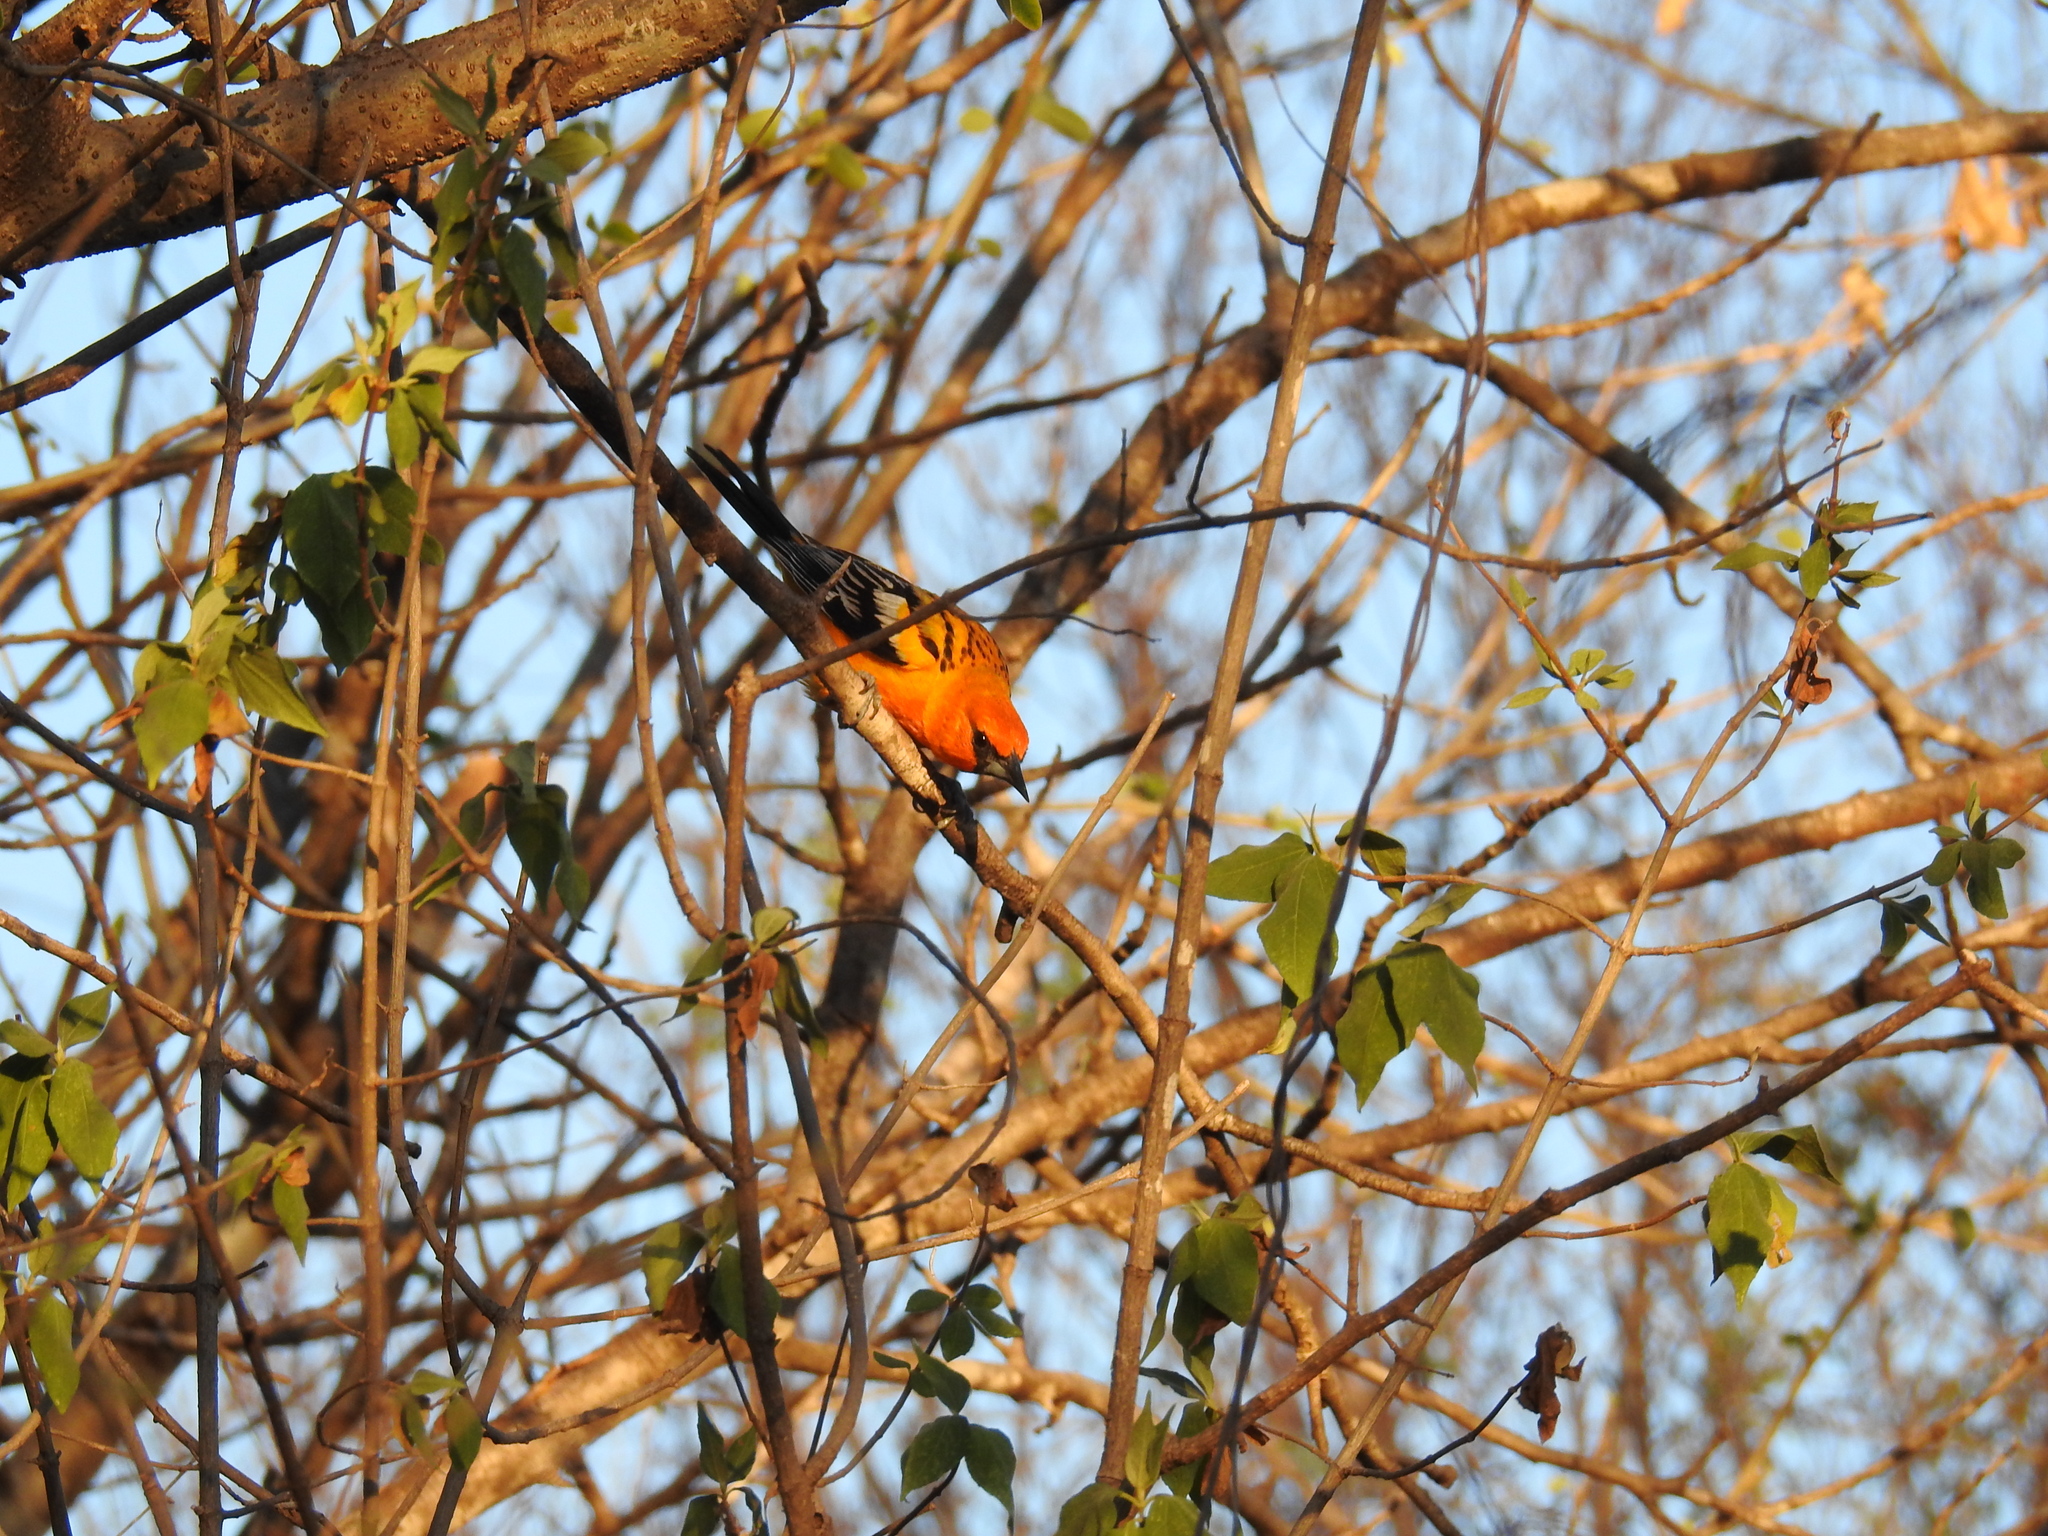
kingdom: Animalia
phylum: Chordata
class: Aves
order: Passeriformes
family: Icteridae
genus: Icterus
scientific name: Icterus pustulatus
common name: Streak-backed oriole
